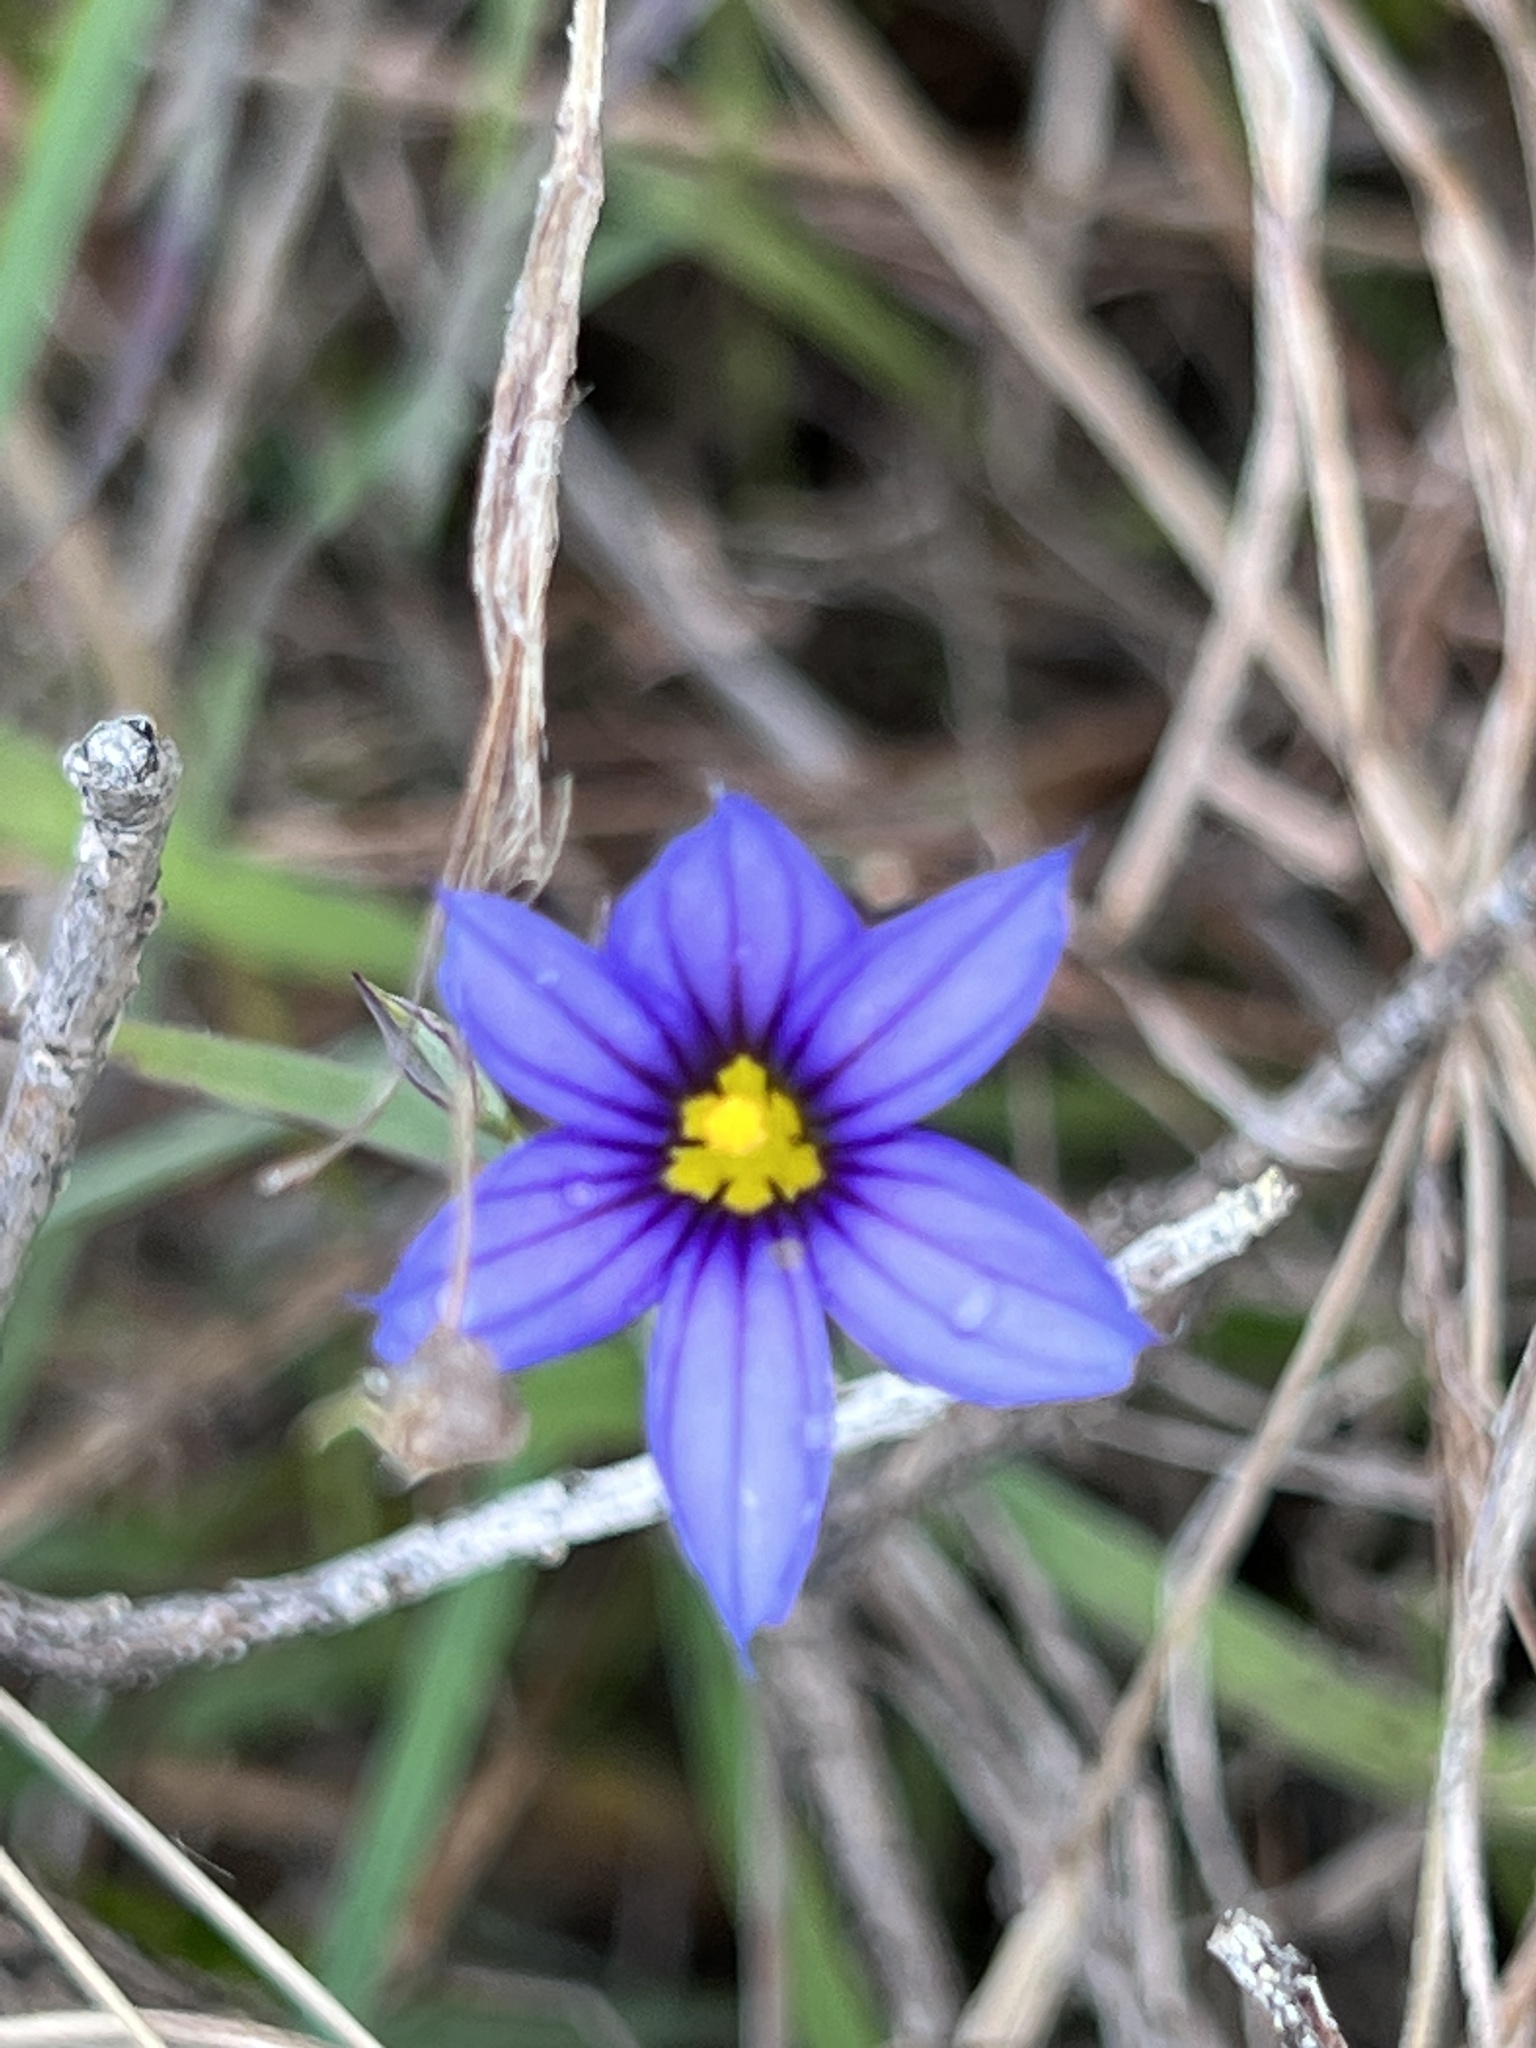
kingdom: Plantae
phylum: Tracheophyta
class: Liliopsida
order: Asparagales
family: Iridaceae
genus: Sisyrinchium
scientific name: Sisyrinchium bellum
